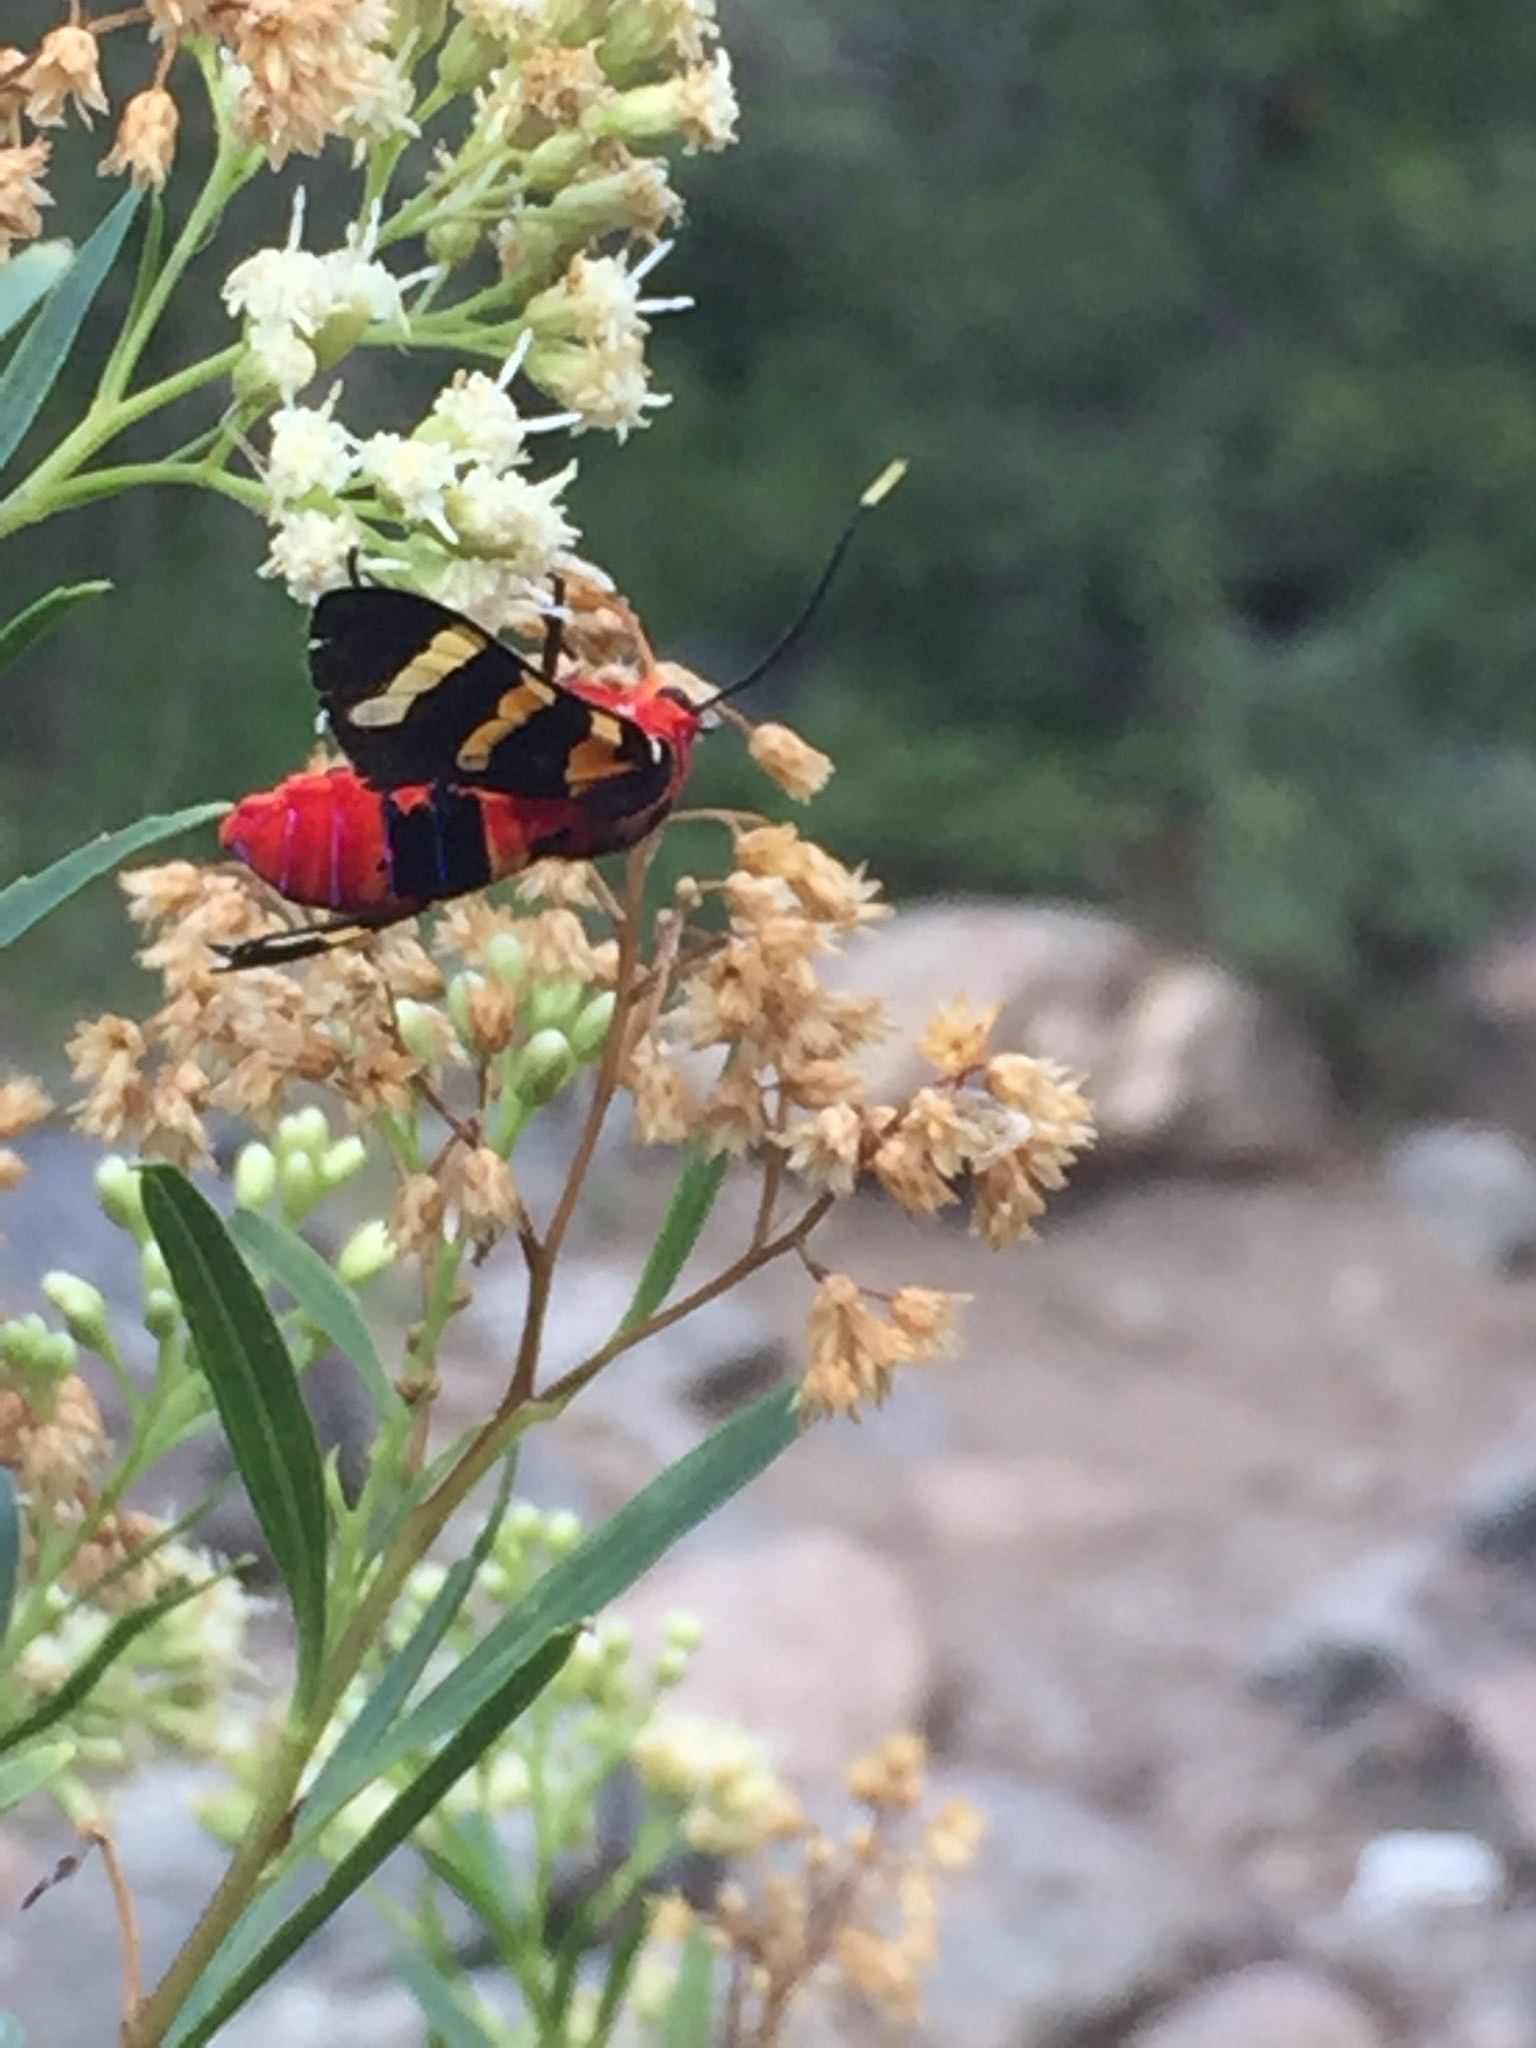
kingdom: Animalia
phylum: Arthropoda
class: Insecta
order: Lepidoptera
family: Erebidae
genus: Eurata
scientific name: Eurata igniventris
